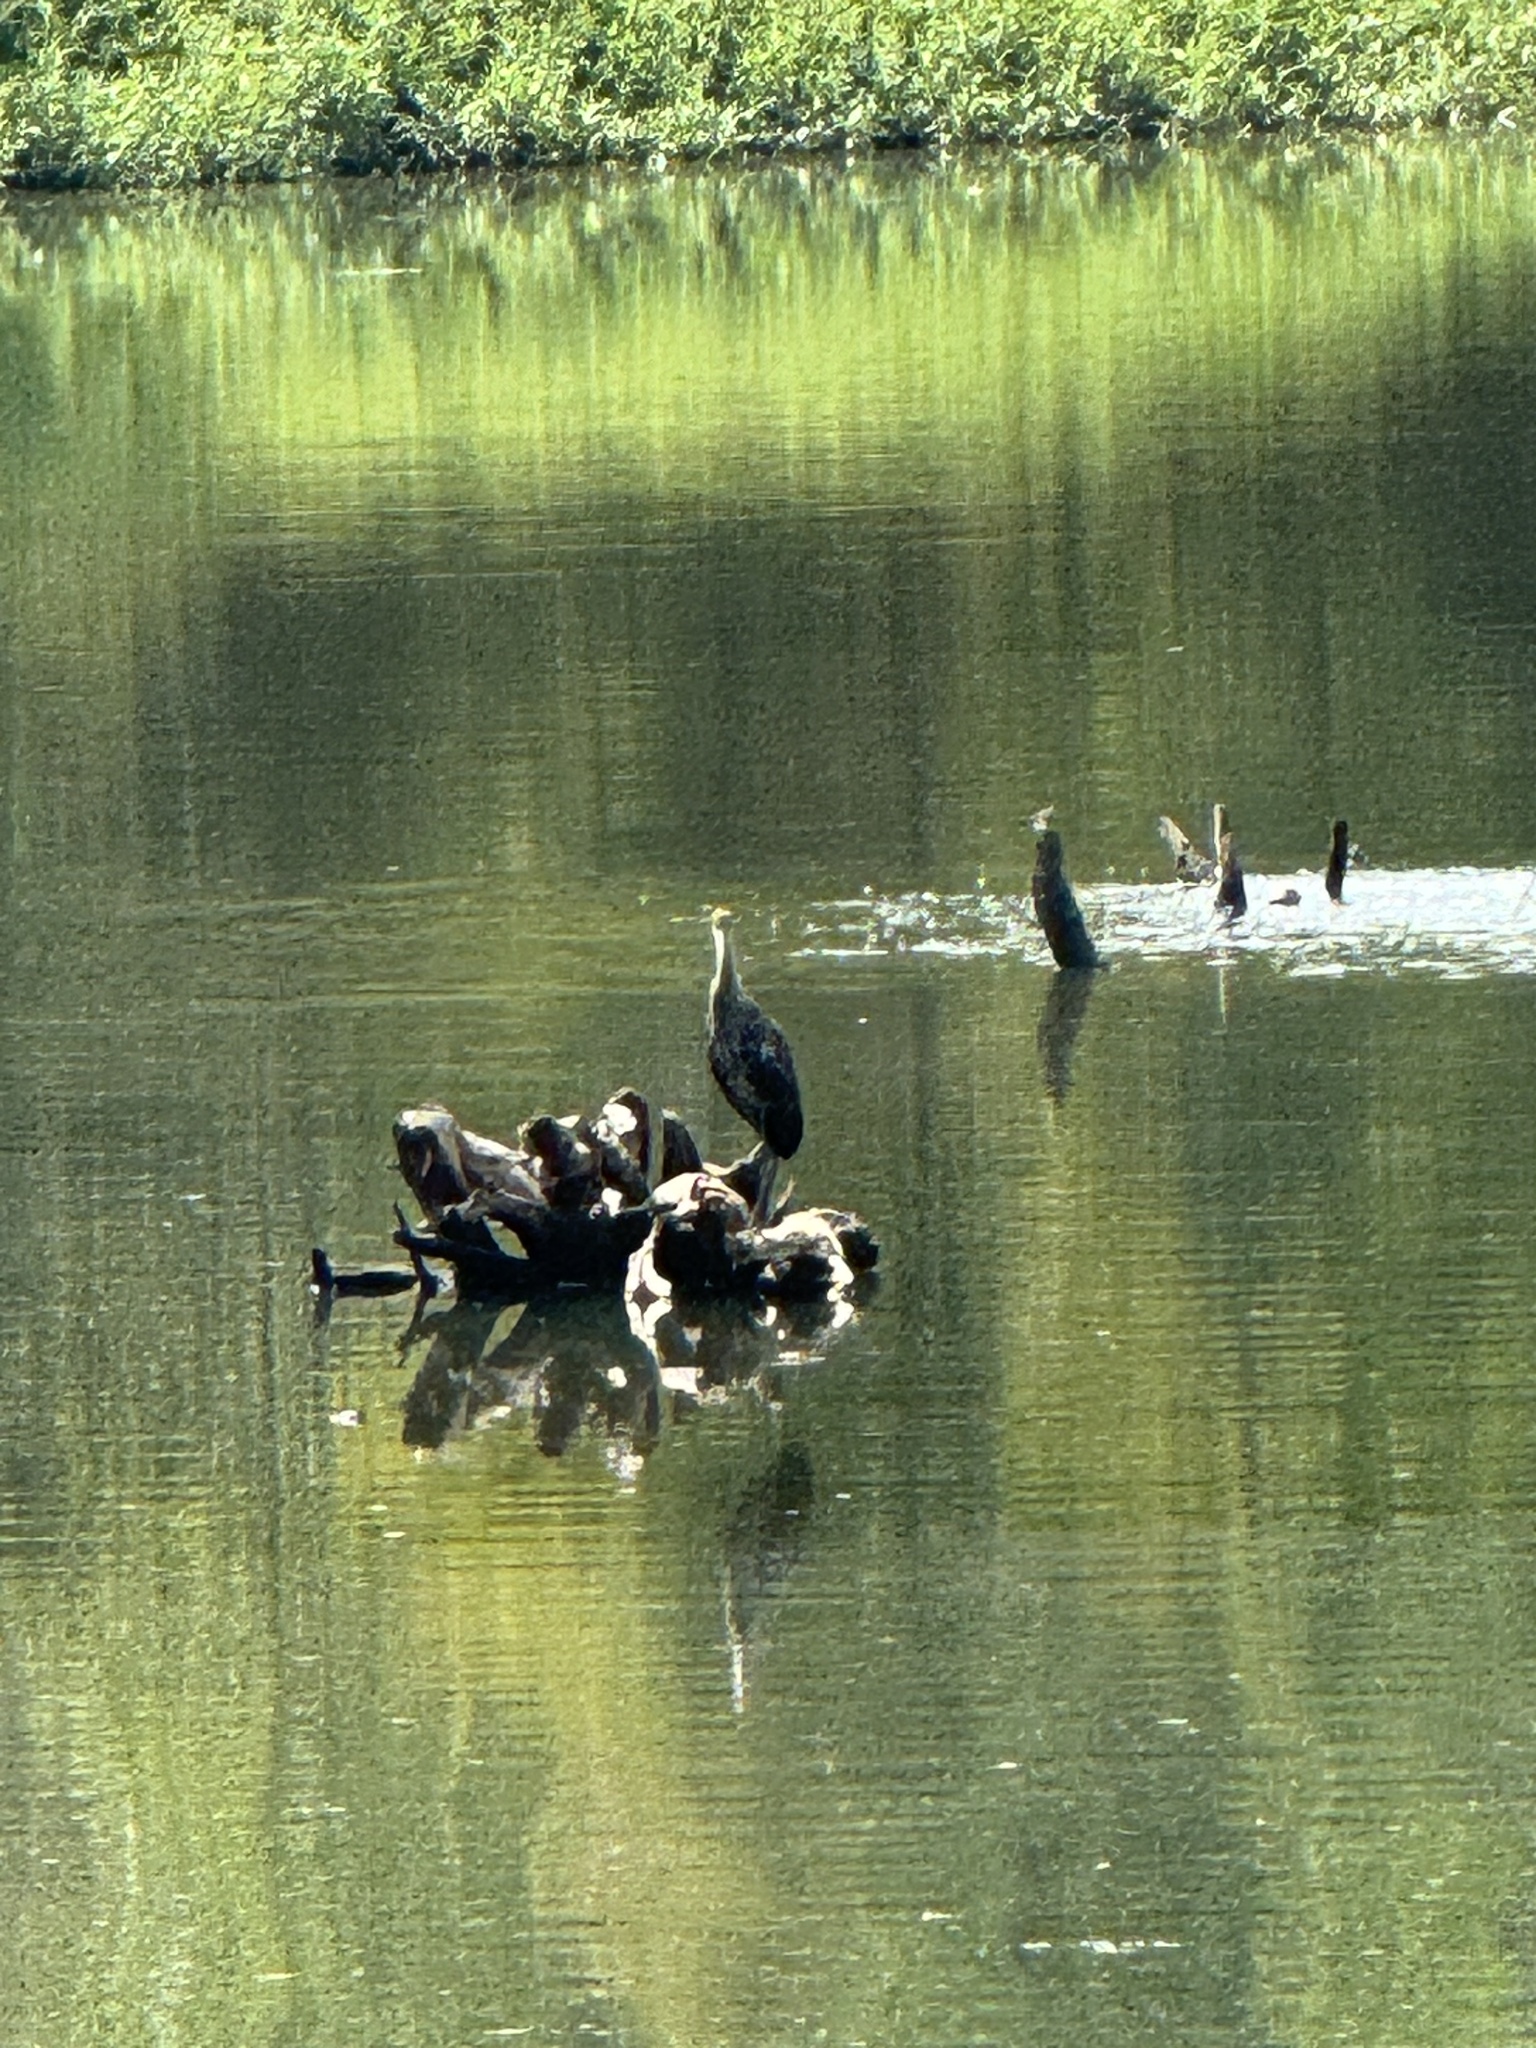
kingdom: Animalia
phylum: Chordata
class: Aves
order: Gruiformes
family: Aramidae
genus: Aramus
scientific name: Aramus guarauna
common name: Limpkin
